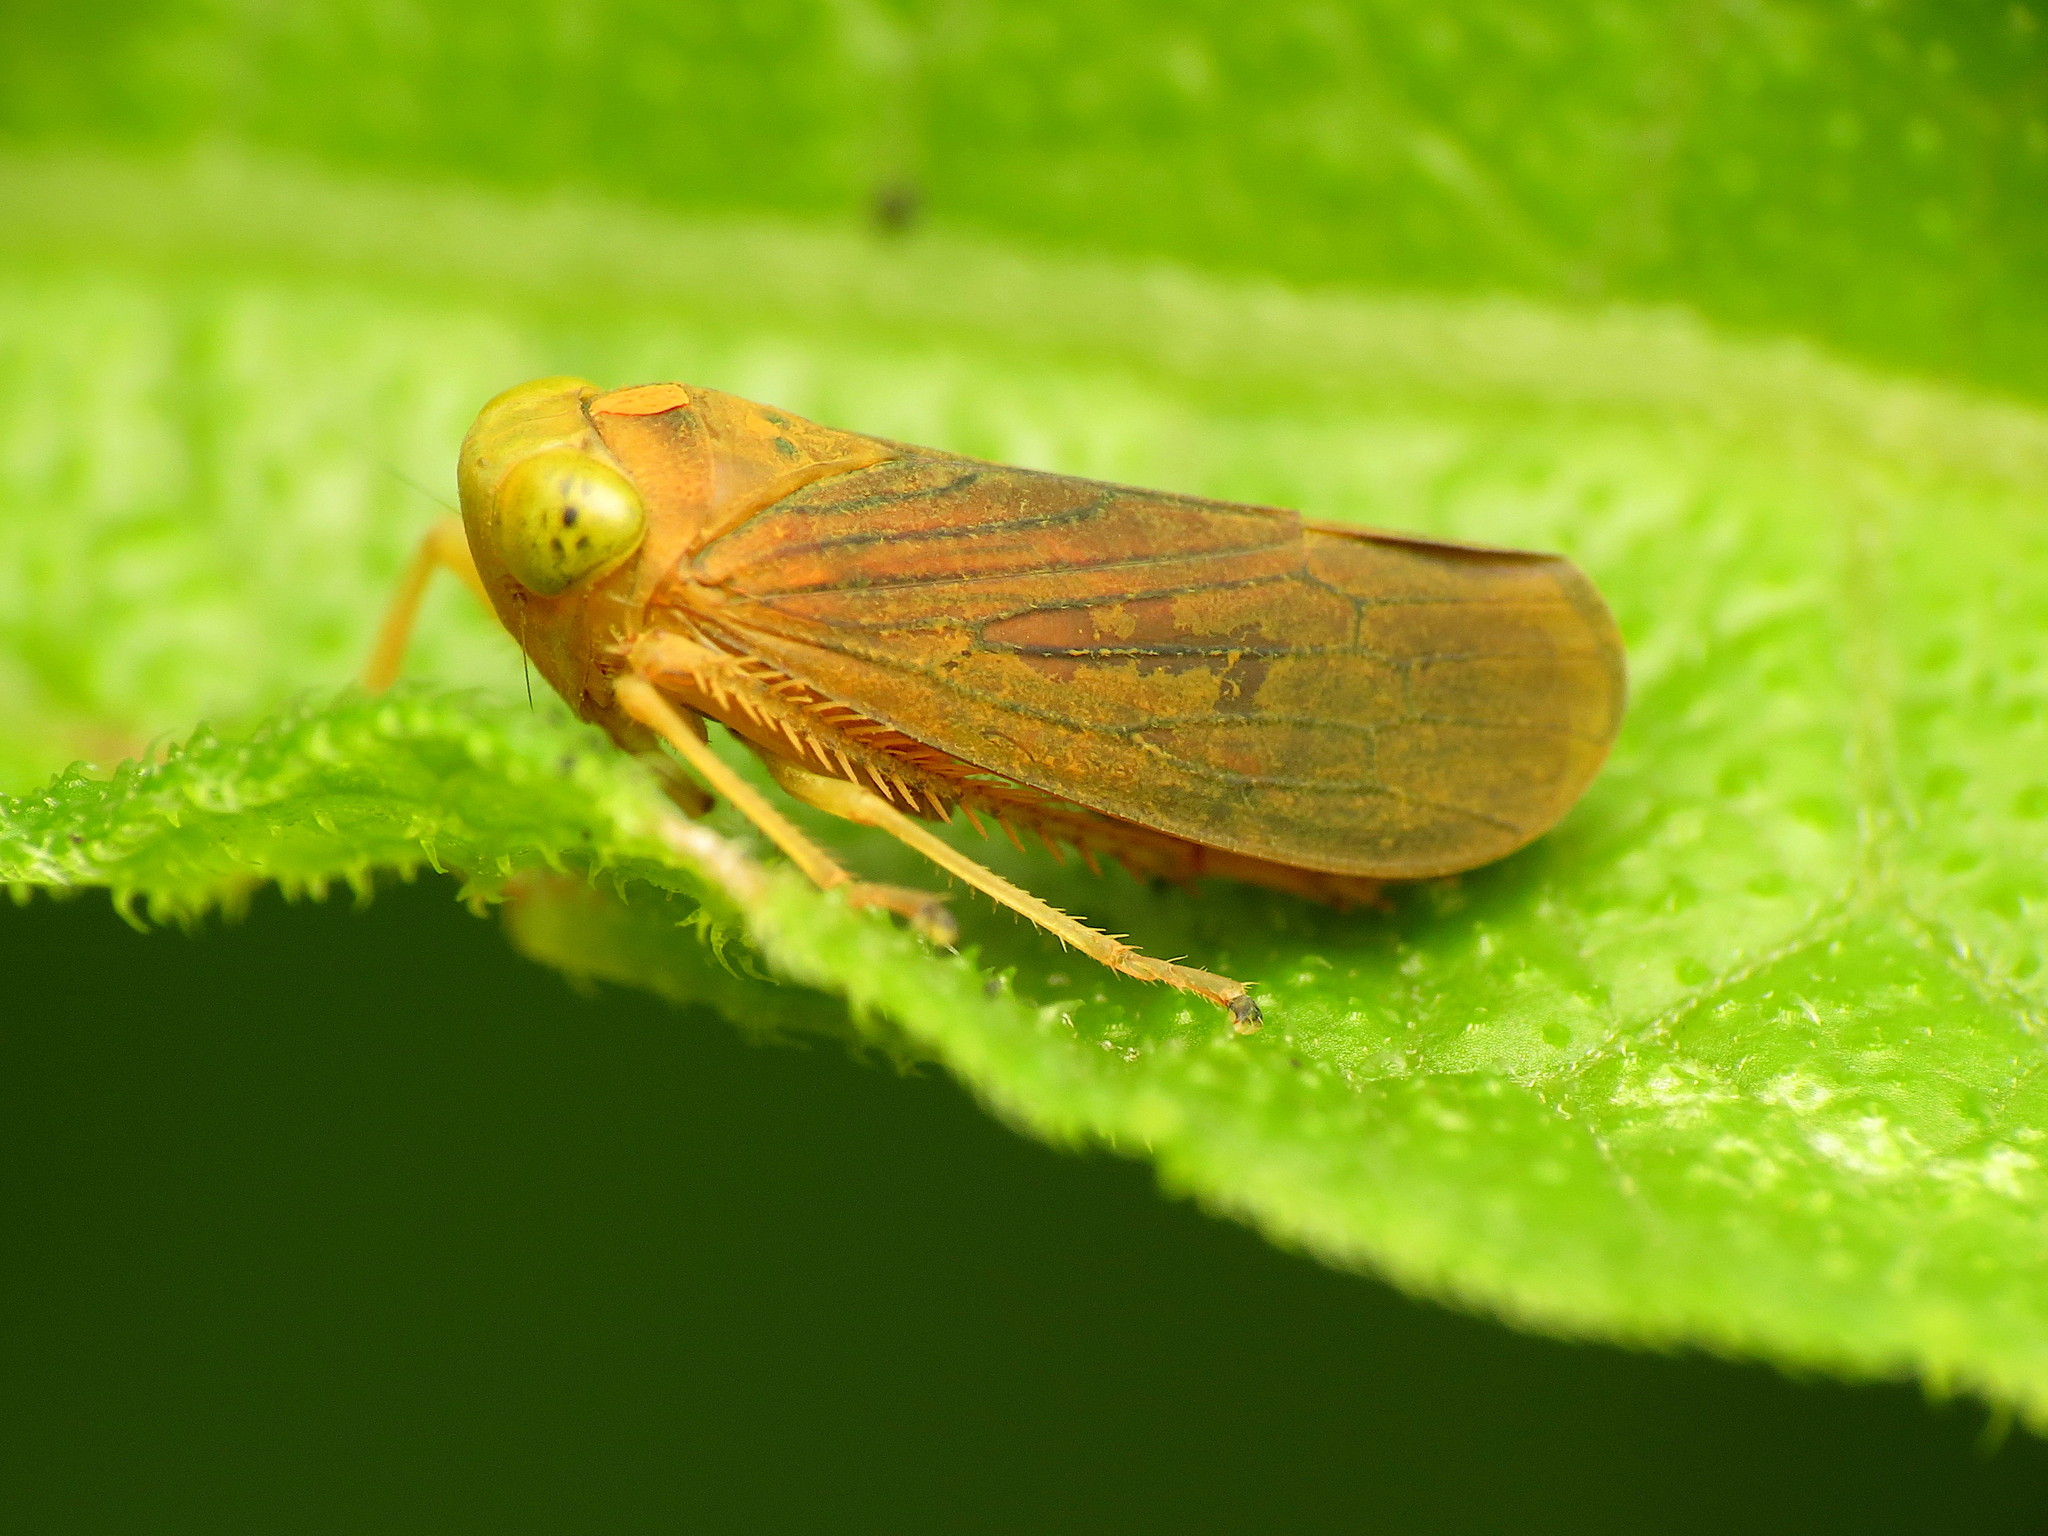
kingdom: Animalia
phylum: Arthropoda
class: Insecta
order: Hemiptera
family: Cicadellidae
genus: Jikradia
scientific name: Jikradia olitoria
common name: Coppery leafhopper
